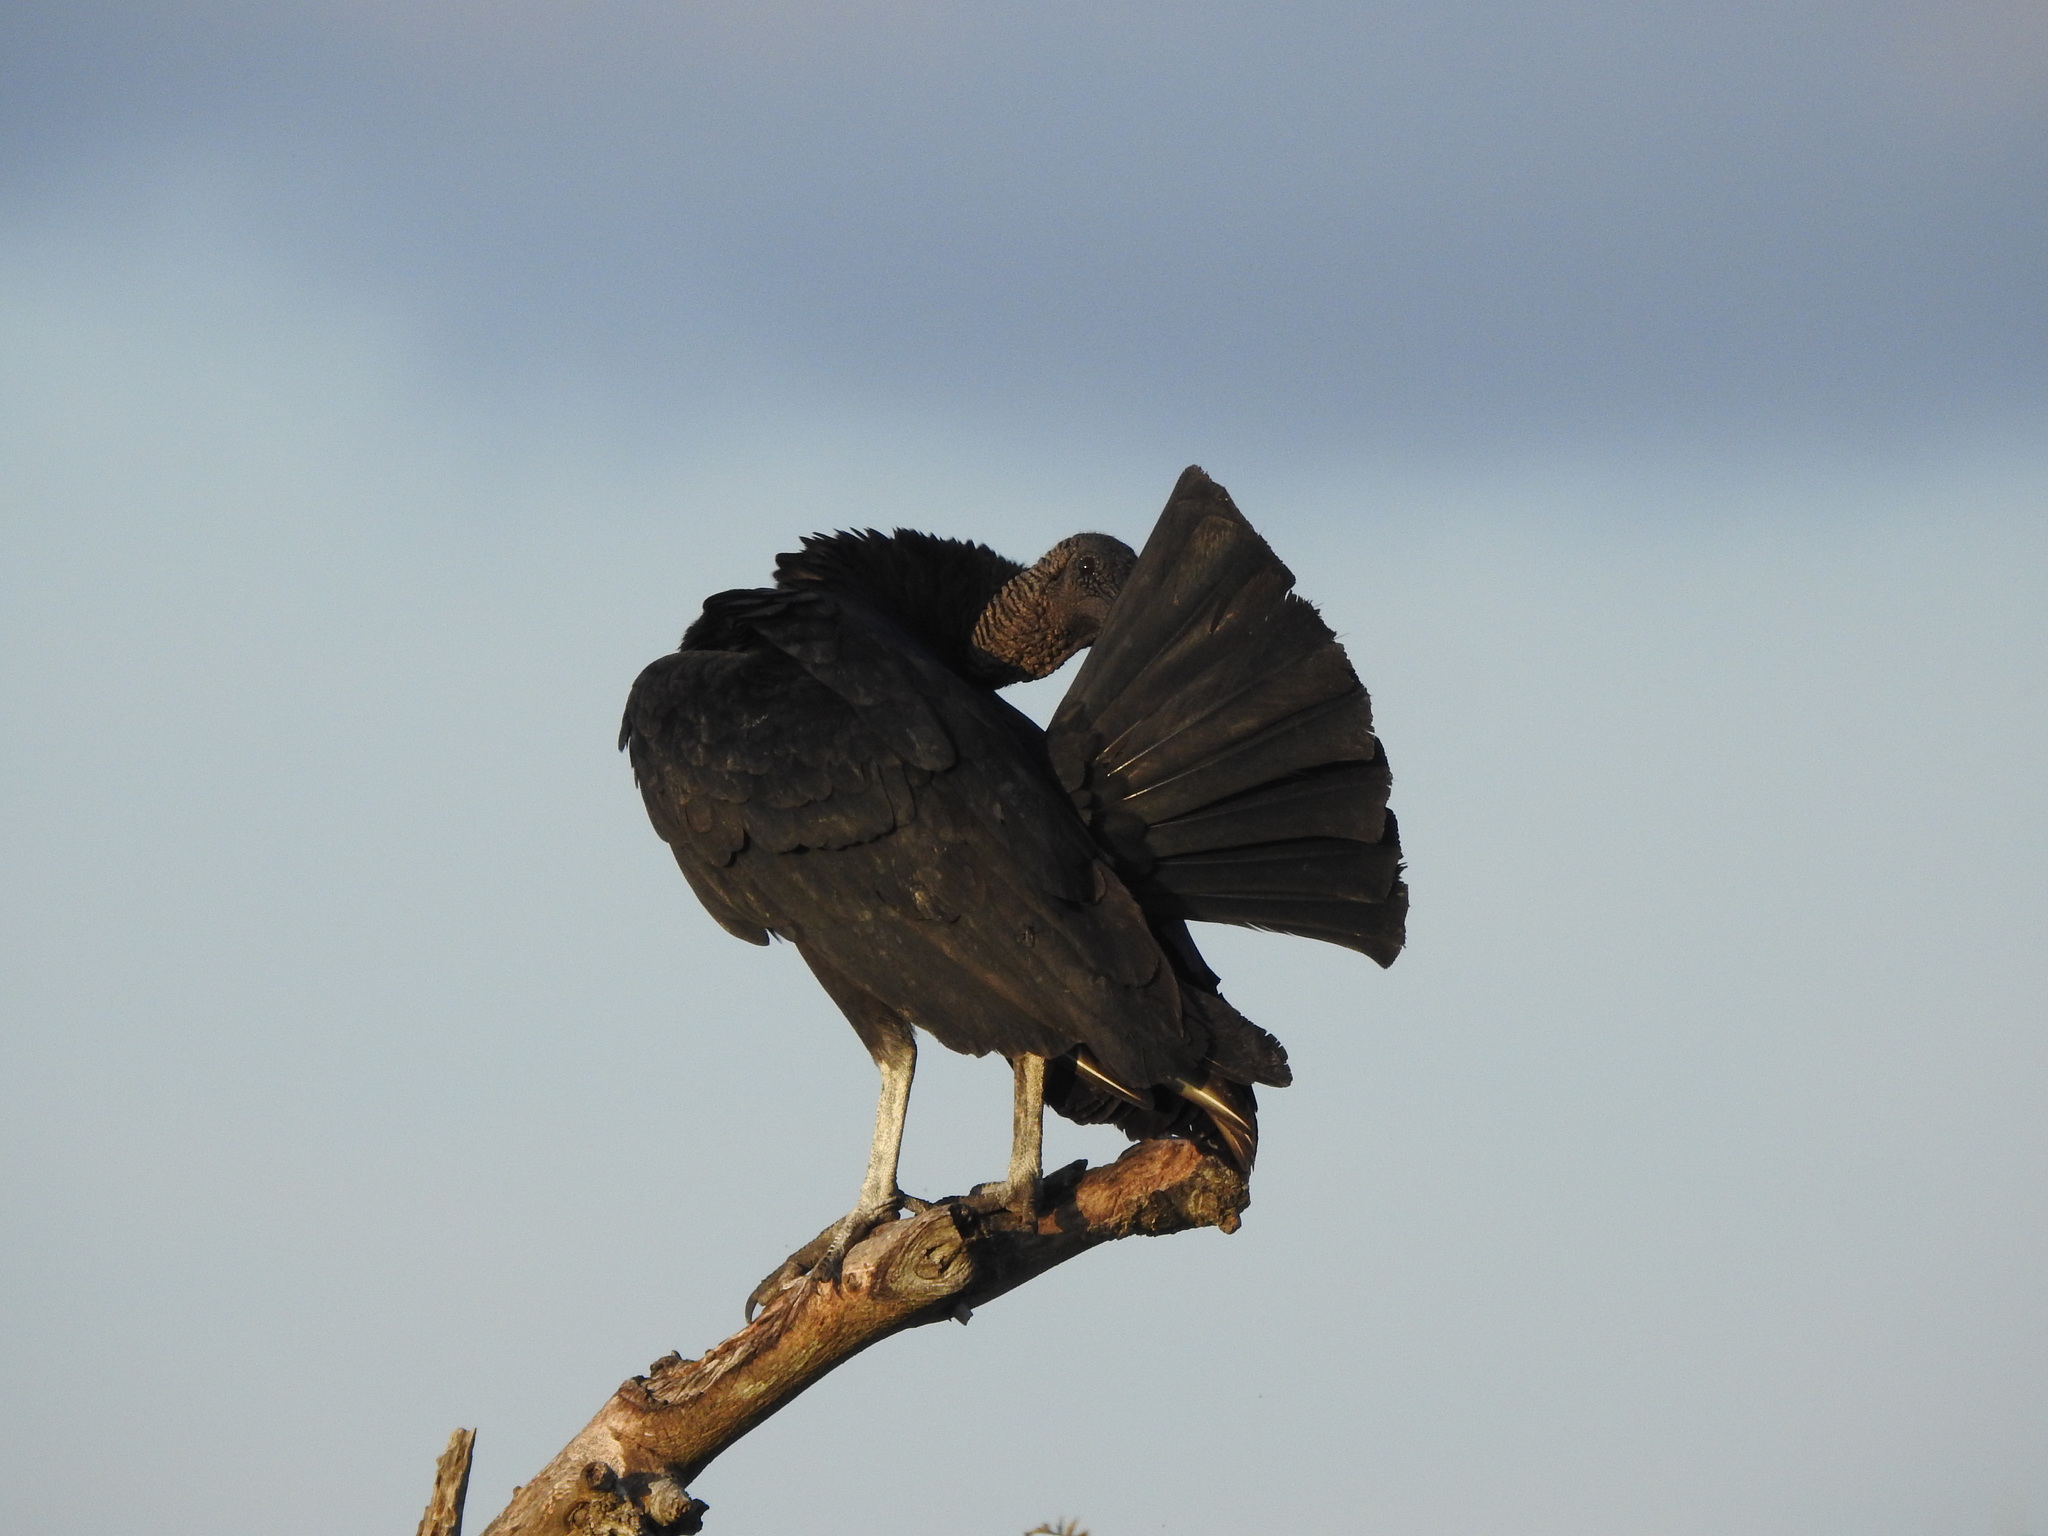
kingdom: Animalia
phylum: Chordata
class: Aves
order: Accipitriformes
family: Cathartidae
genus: Coragyps
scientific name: Coragyps atratus
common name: Black vulture
